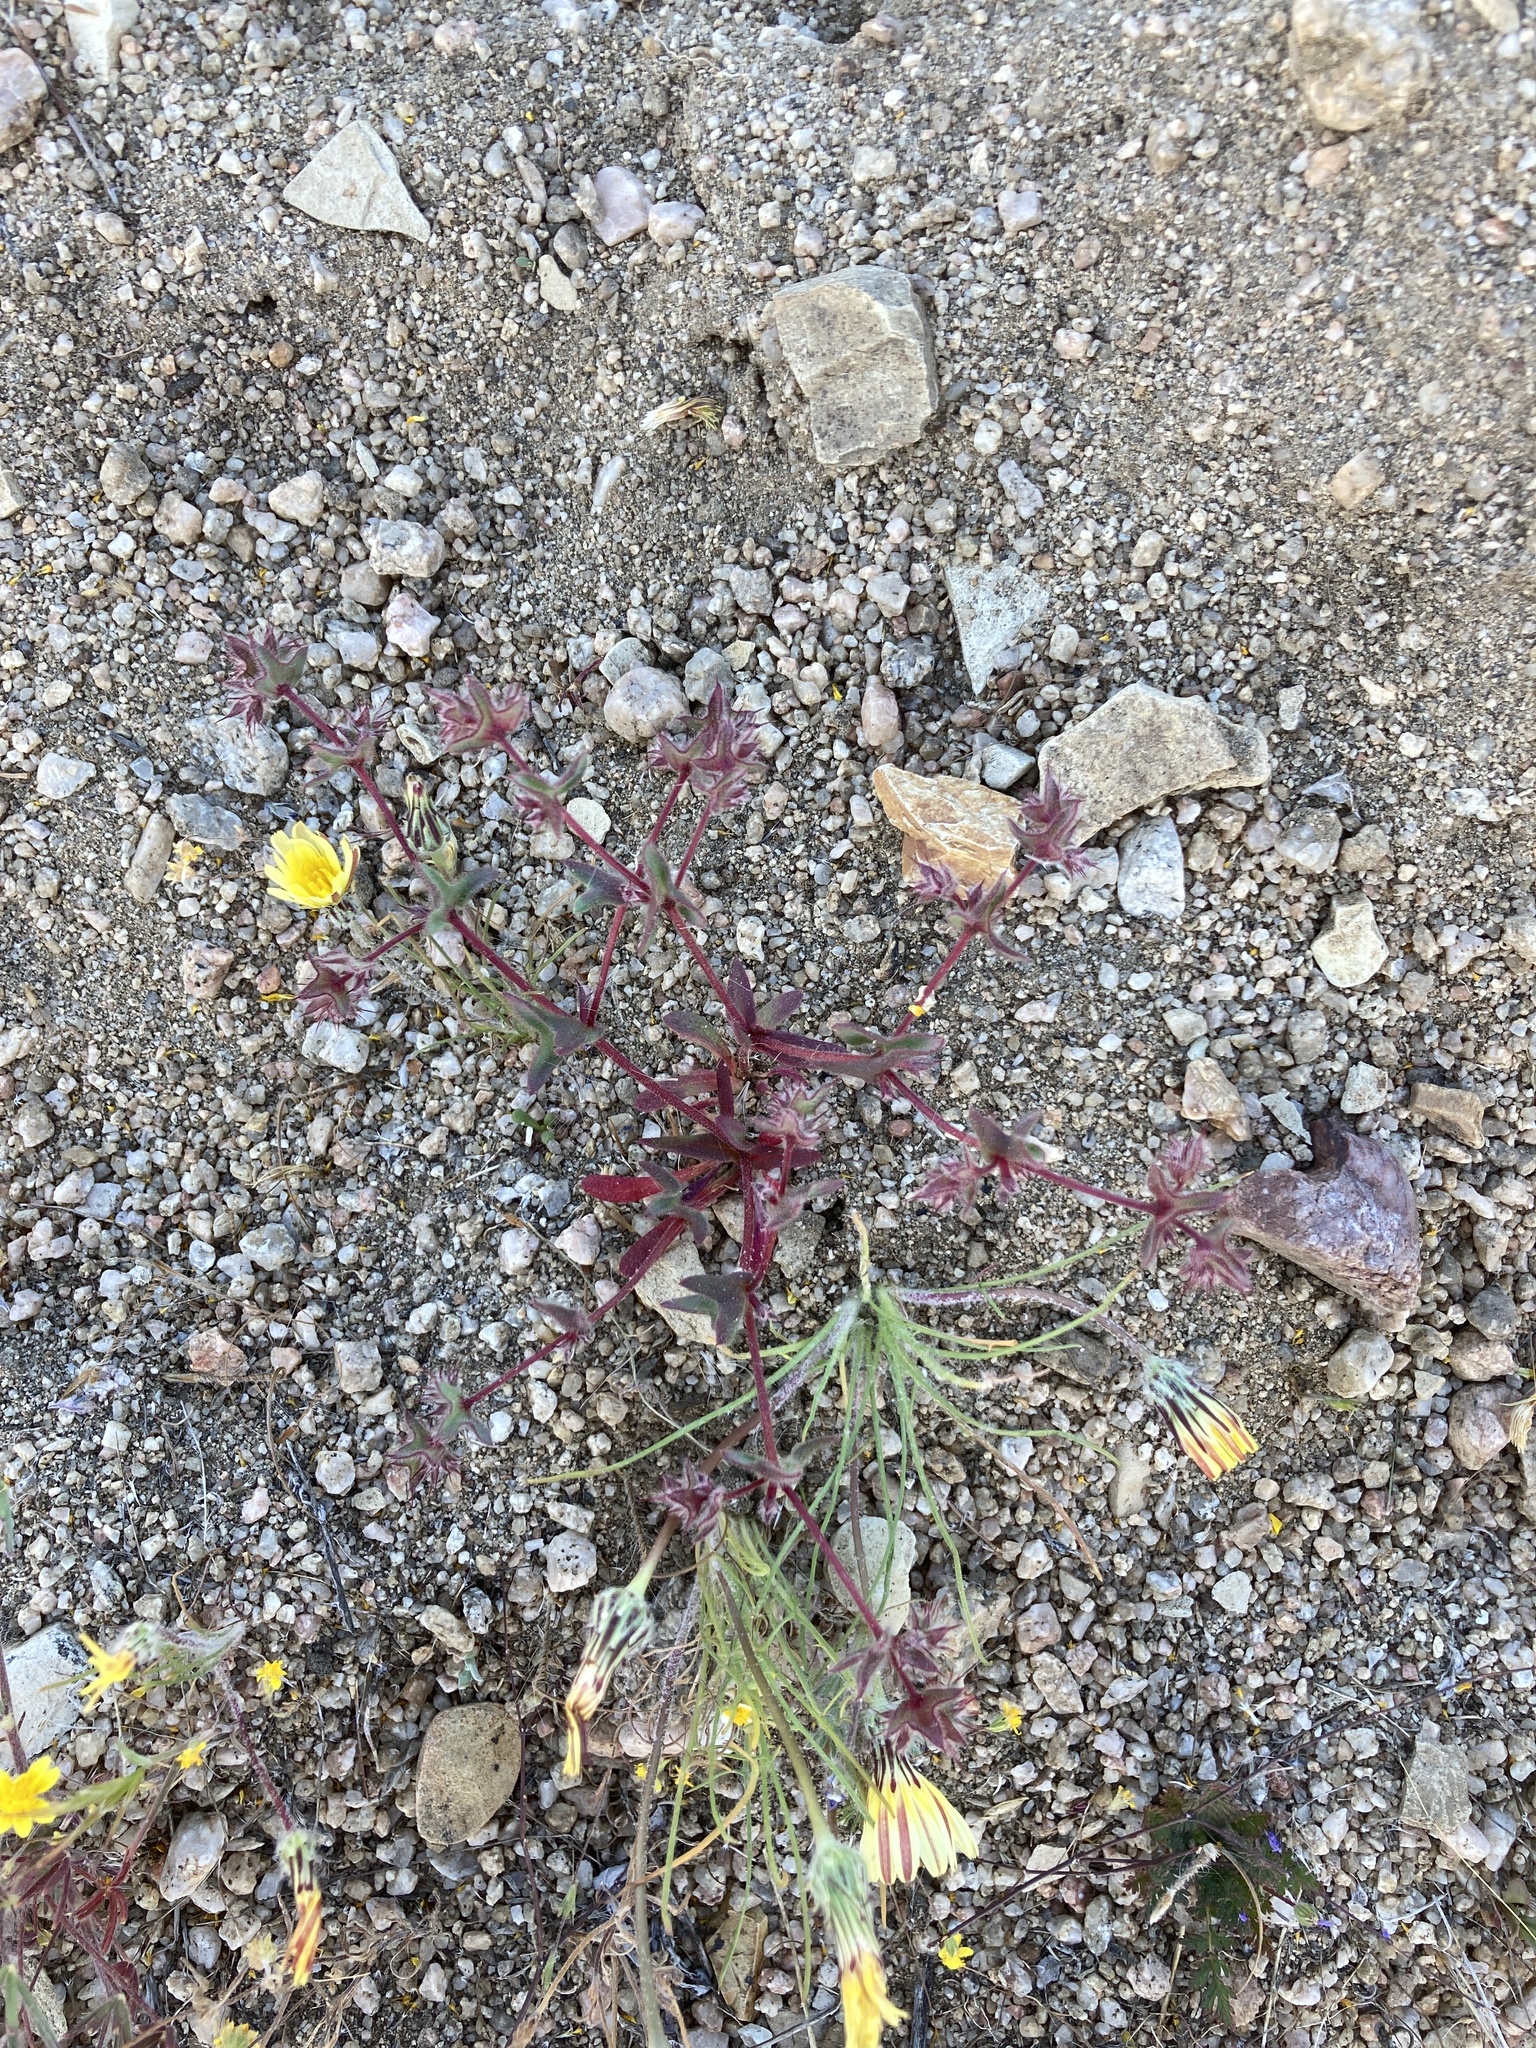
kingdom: Plantae
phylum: Tracheophyta
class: Magnoliopsida
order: Caryophyllales
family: Polygonaceae
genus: Mucronea
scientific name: Mucronea californica
